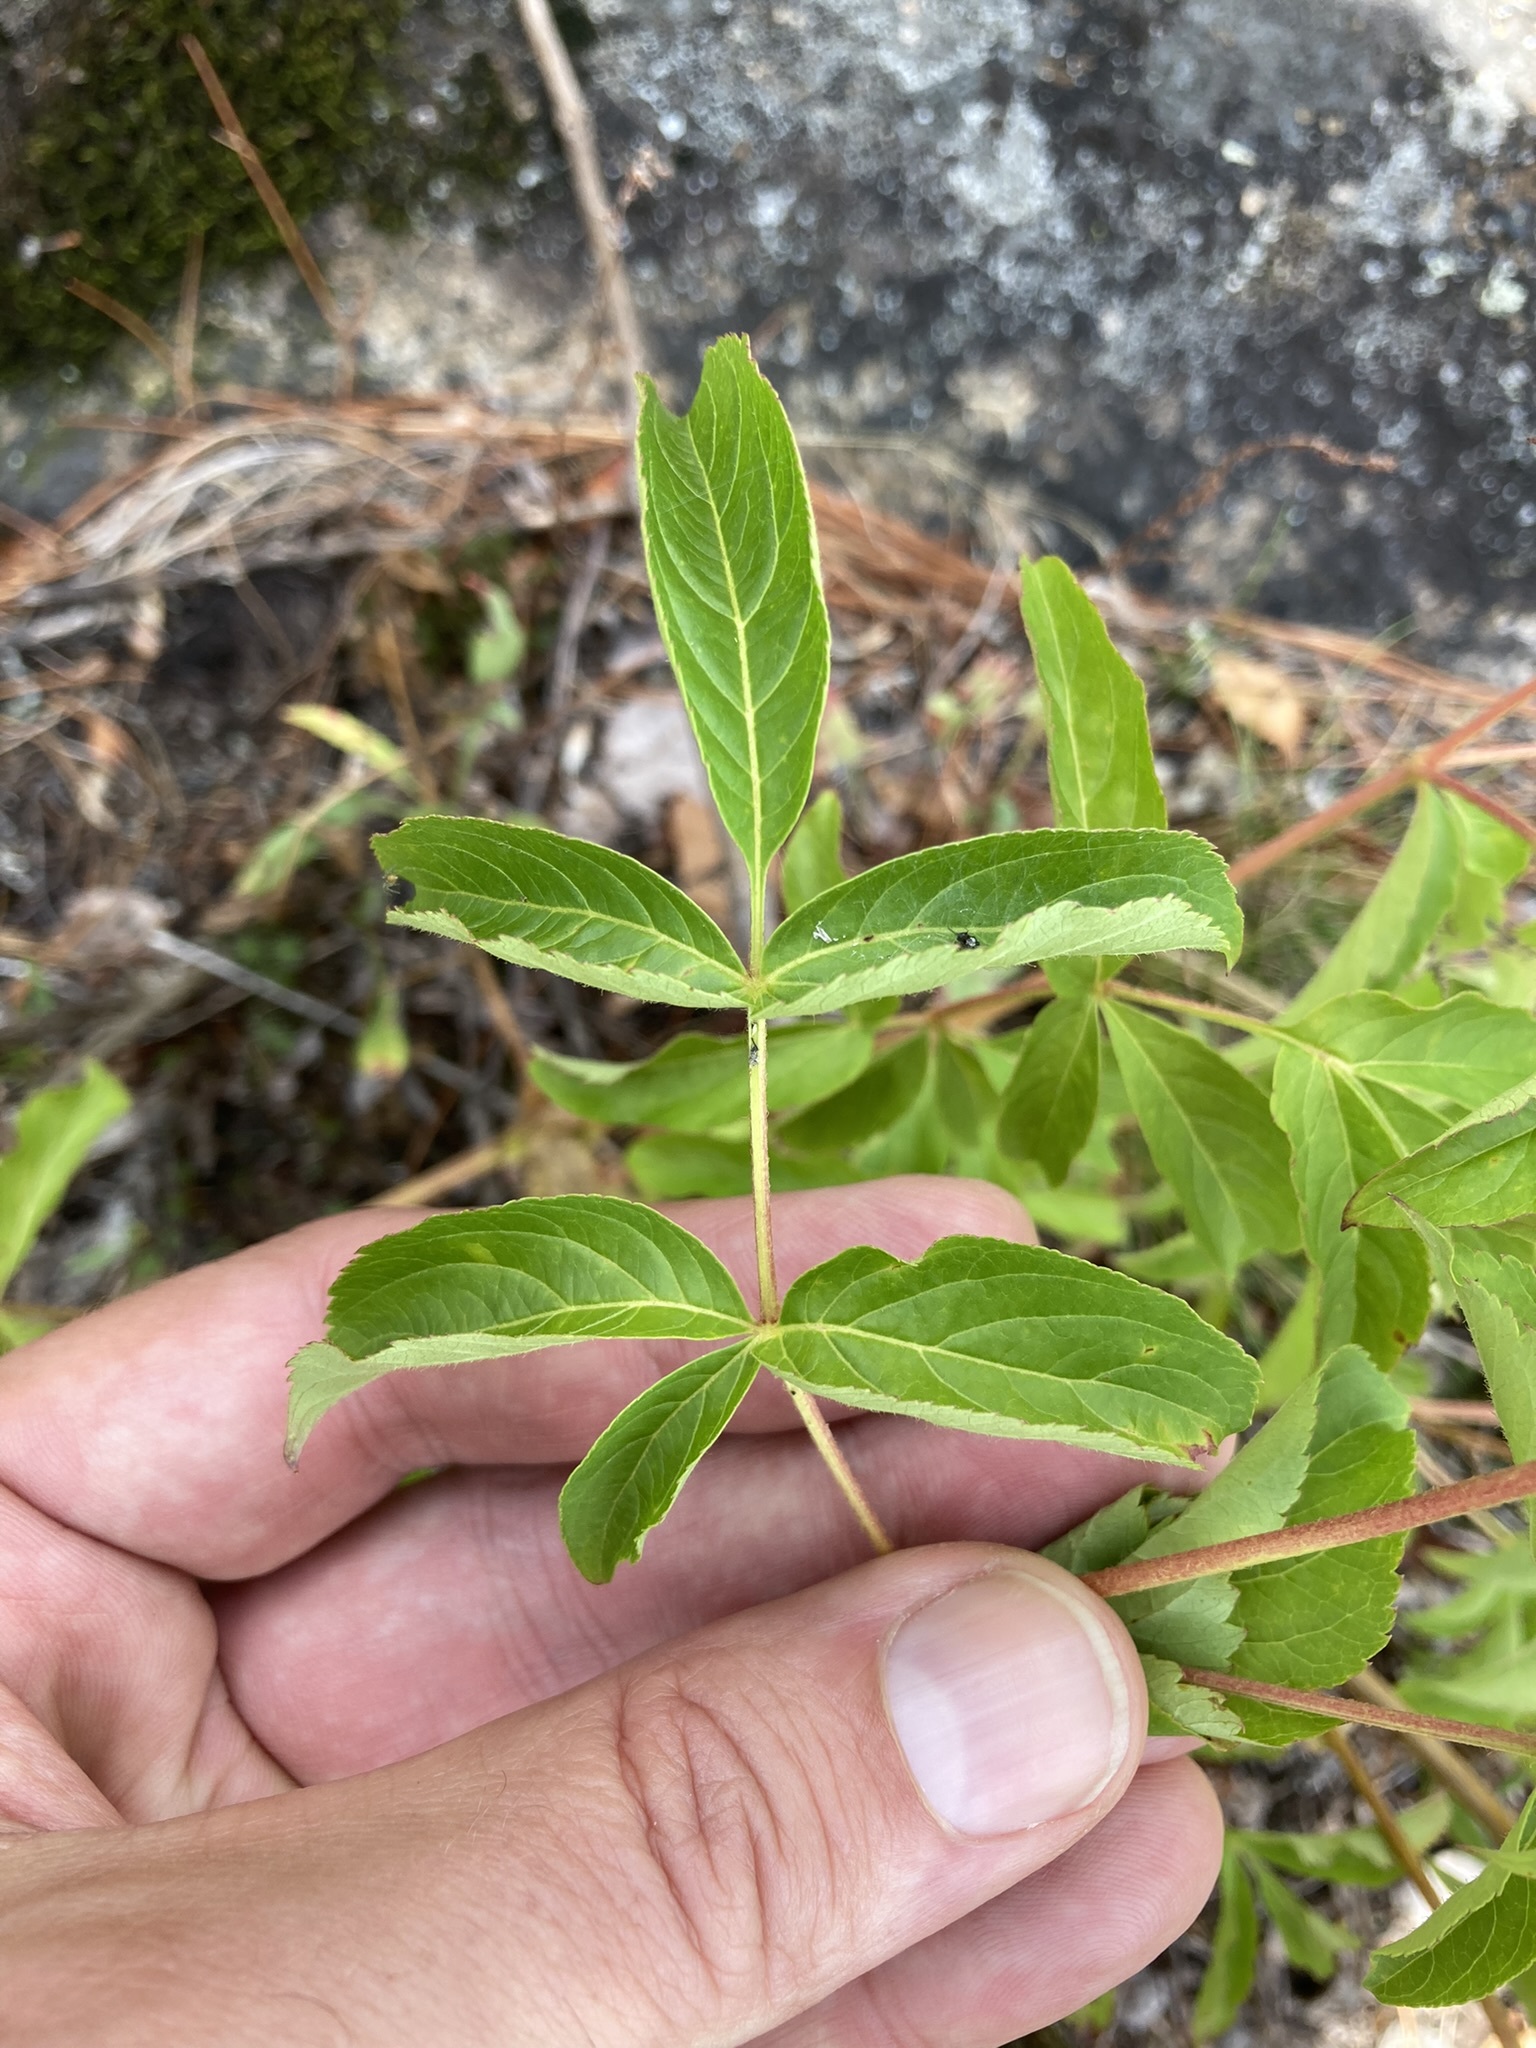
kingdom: Plantae
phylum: Tracheophyta
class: Magnoliopsida
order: Apiales
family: Araliaceae
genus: Aralia
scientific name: Aralia hispida
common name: Bristly sarsaparilla
